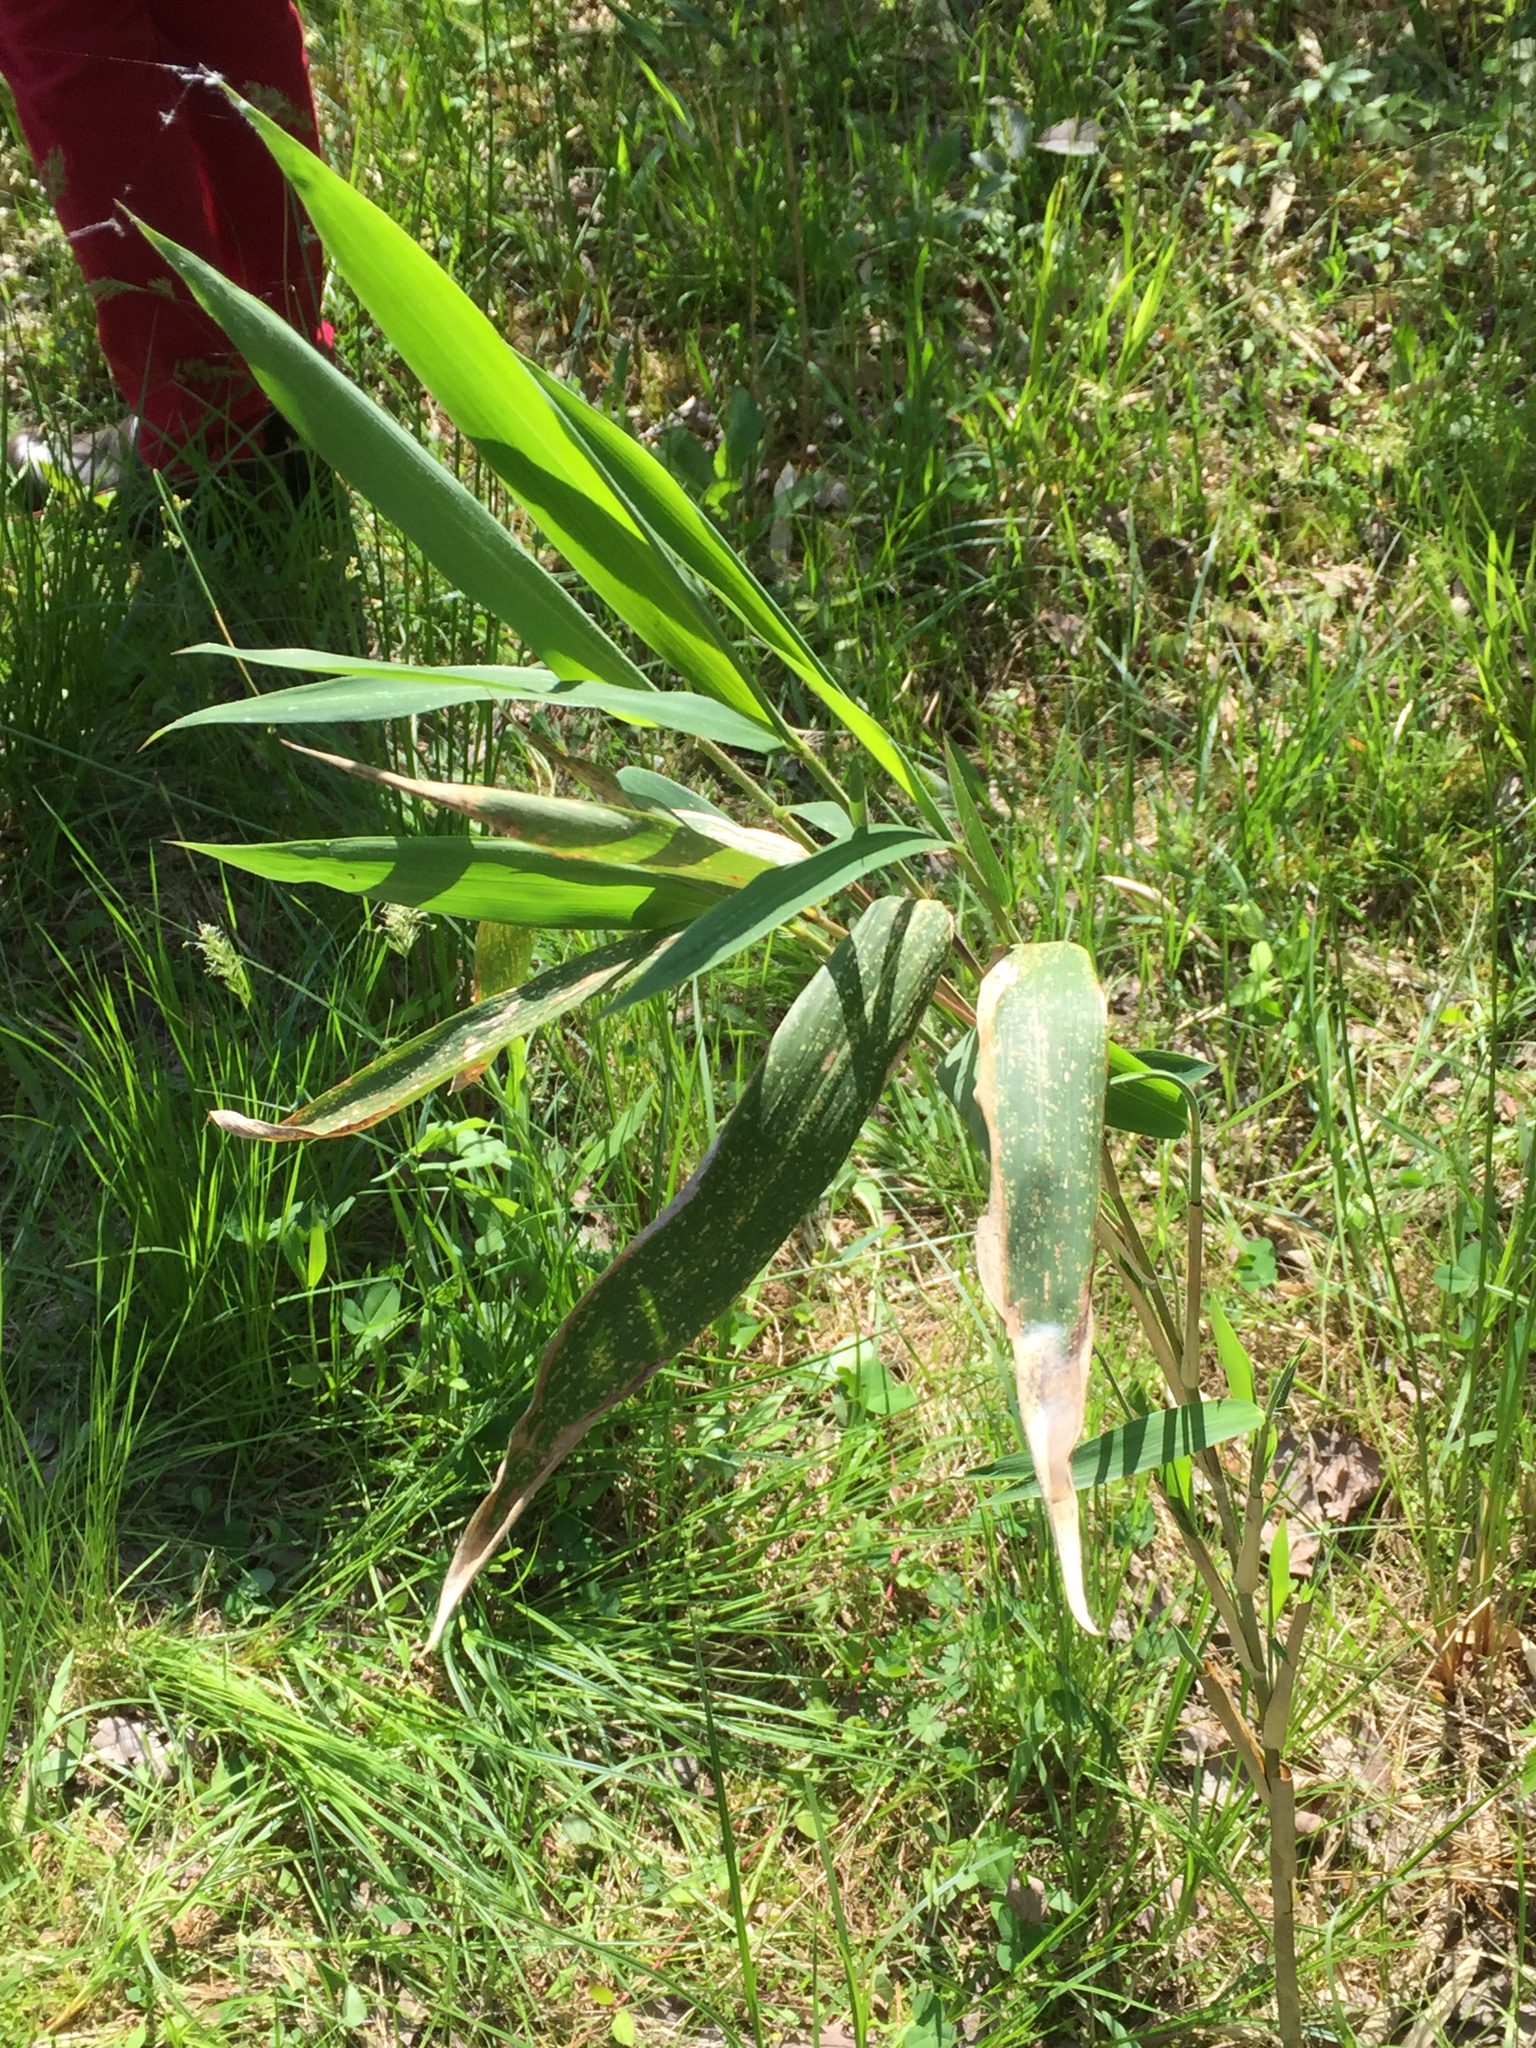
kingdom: Plantae
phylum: Tracheophyta
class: Liliopsida
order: Poales
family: Poaceae
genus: Phragmites
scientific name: Phragmites australis
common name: Common reed
